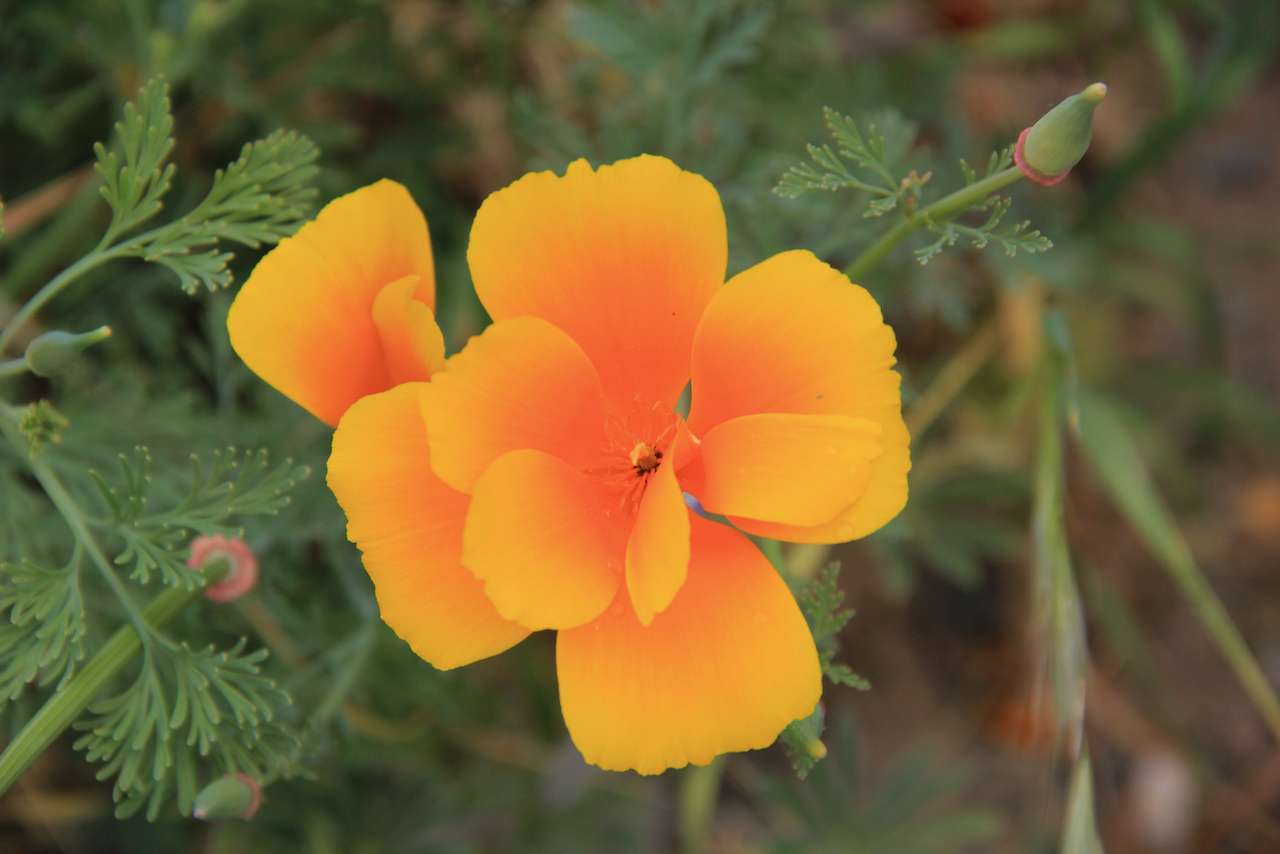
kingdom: Plantae
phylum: Tracheophyta
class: Magnoliopsida
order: Ranunculales
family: Papaveraceae
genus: Eschscholzia
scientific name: Eschscholzia californica
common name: California poppy
